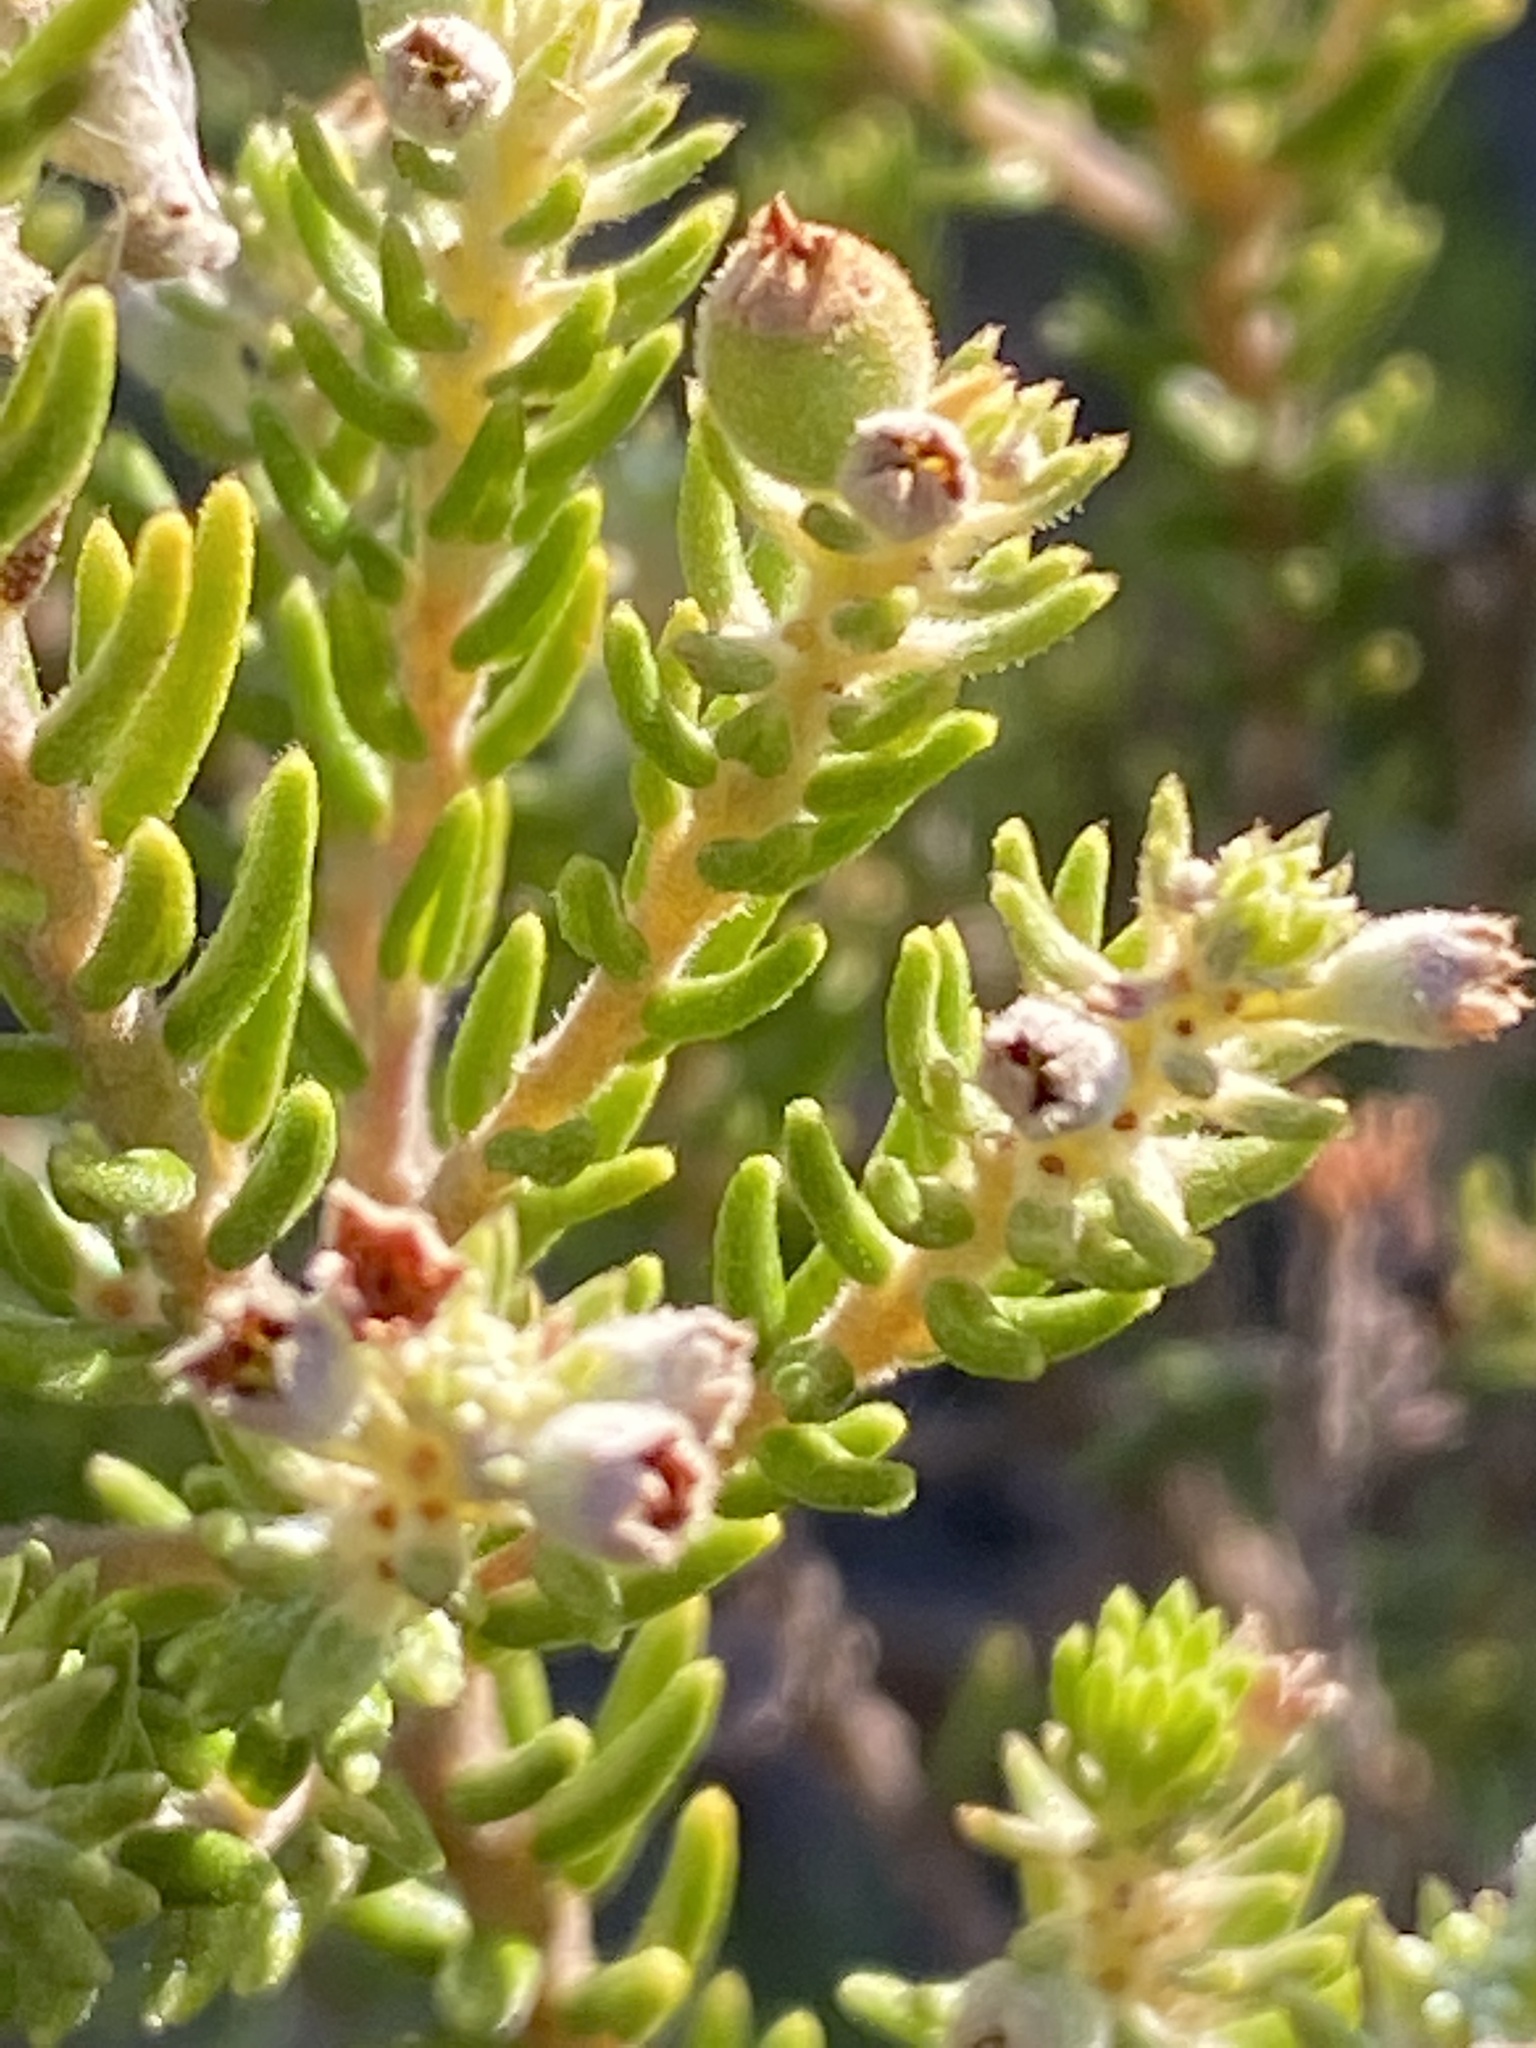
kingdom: Plantae
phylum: Tracheophyta
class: Magnoliopsida
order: Rosales
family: Rhamnaceae
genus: Phylica
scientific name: Phylica purpurea
